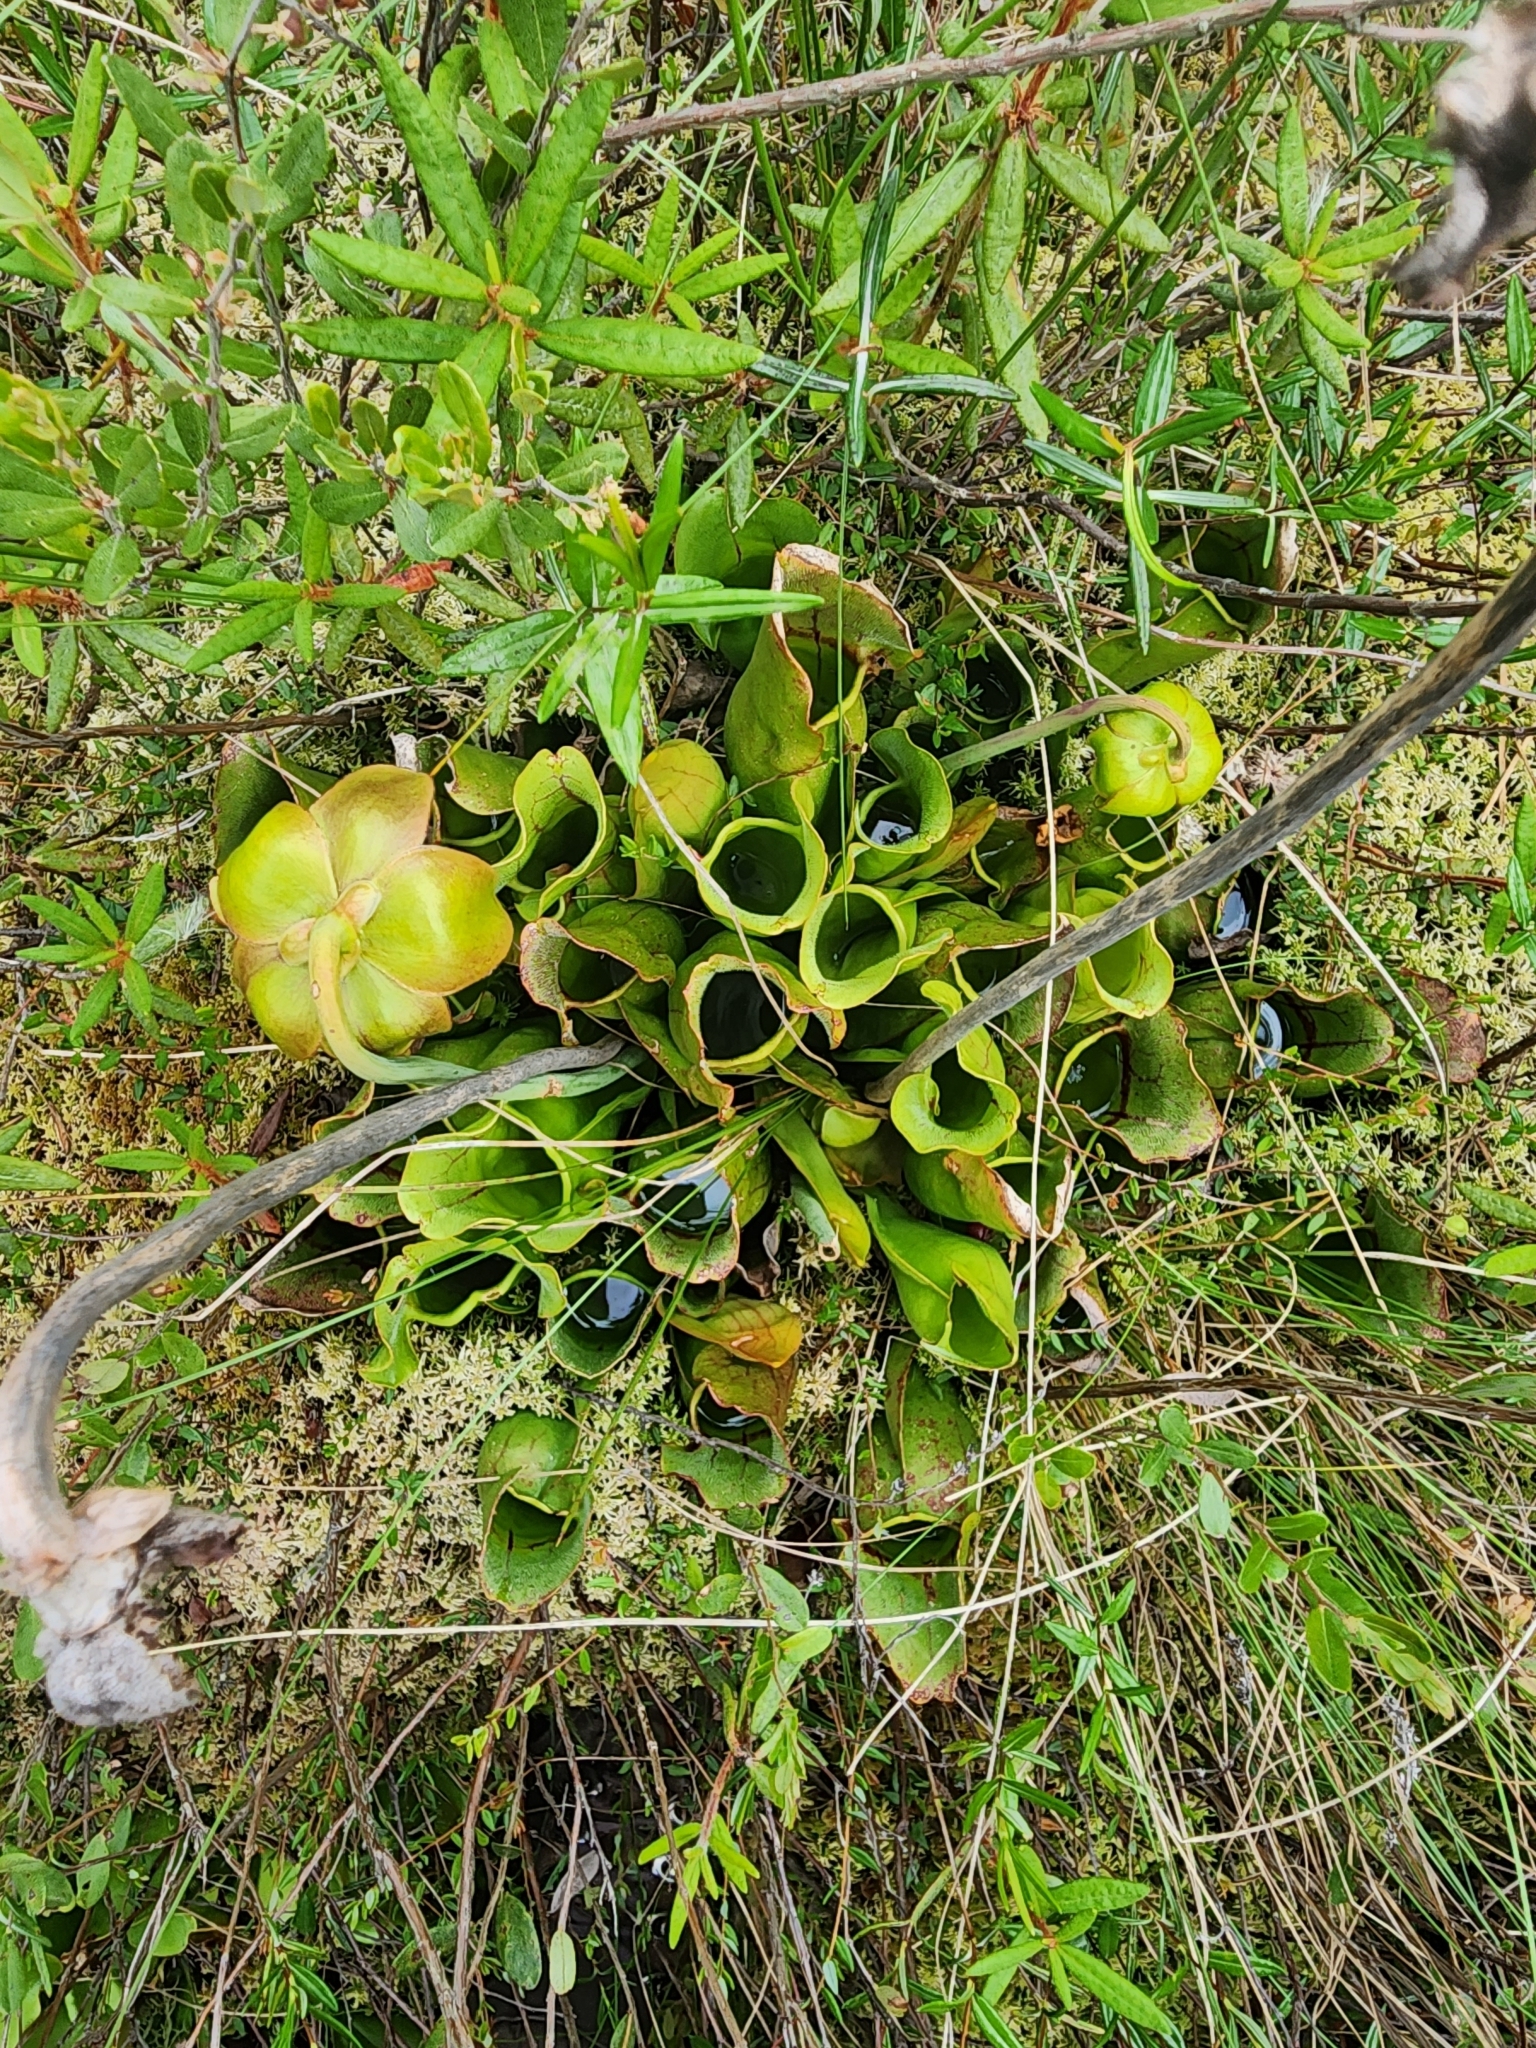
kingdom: Plantae
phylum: Tracheophyta
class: Magnoliopsida
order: Ericales
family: Sarraceniaceae
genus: Sarracenia
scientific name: Sarracenia purpurea
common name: Pitcherplant
